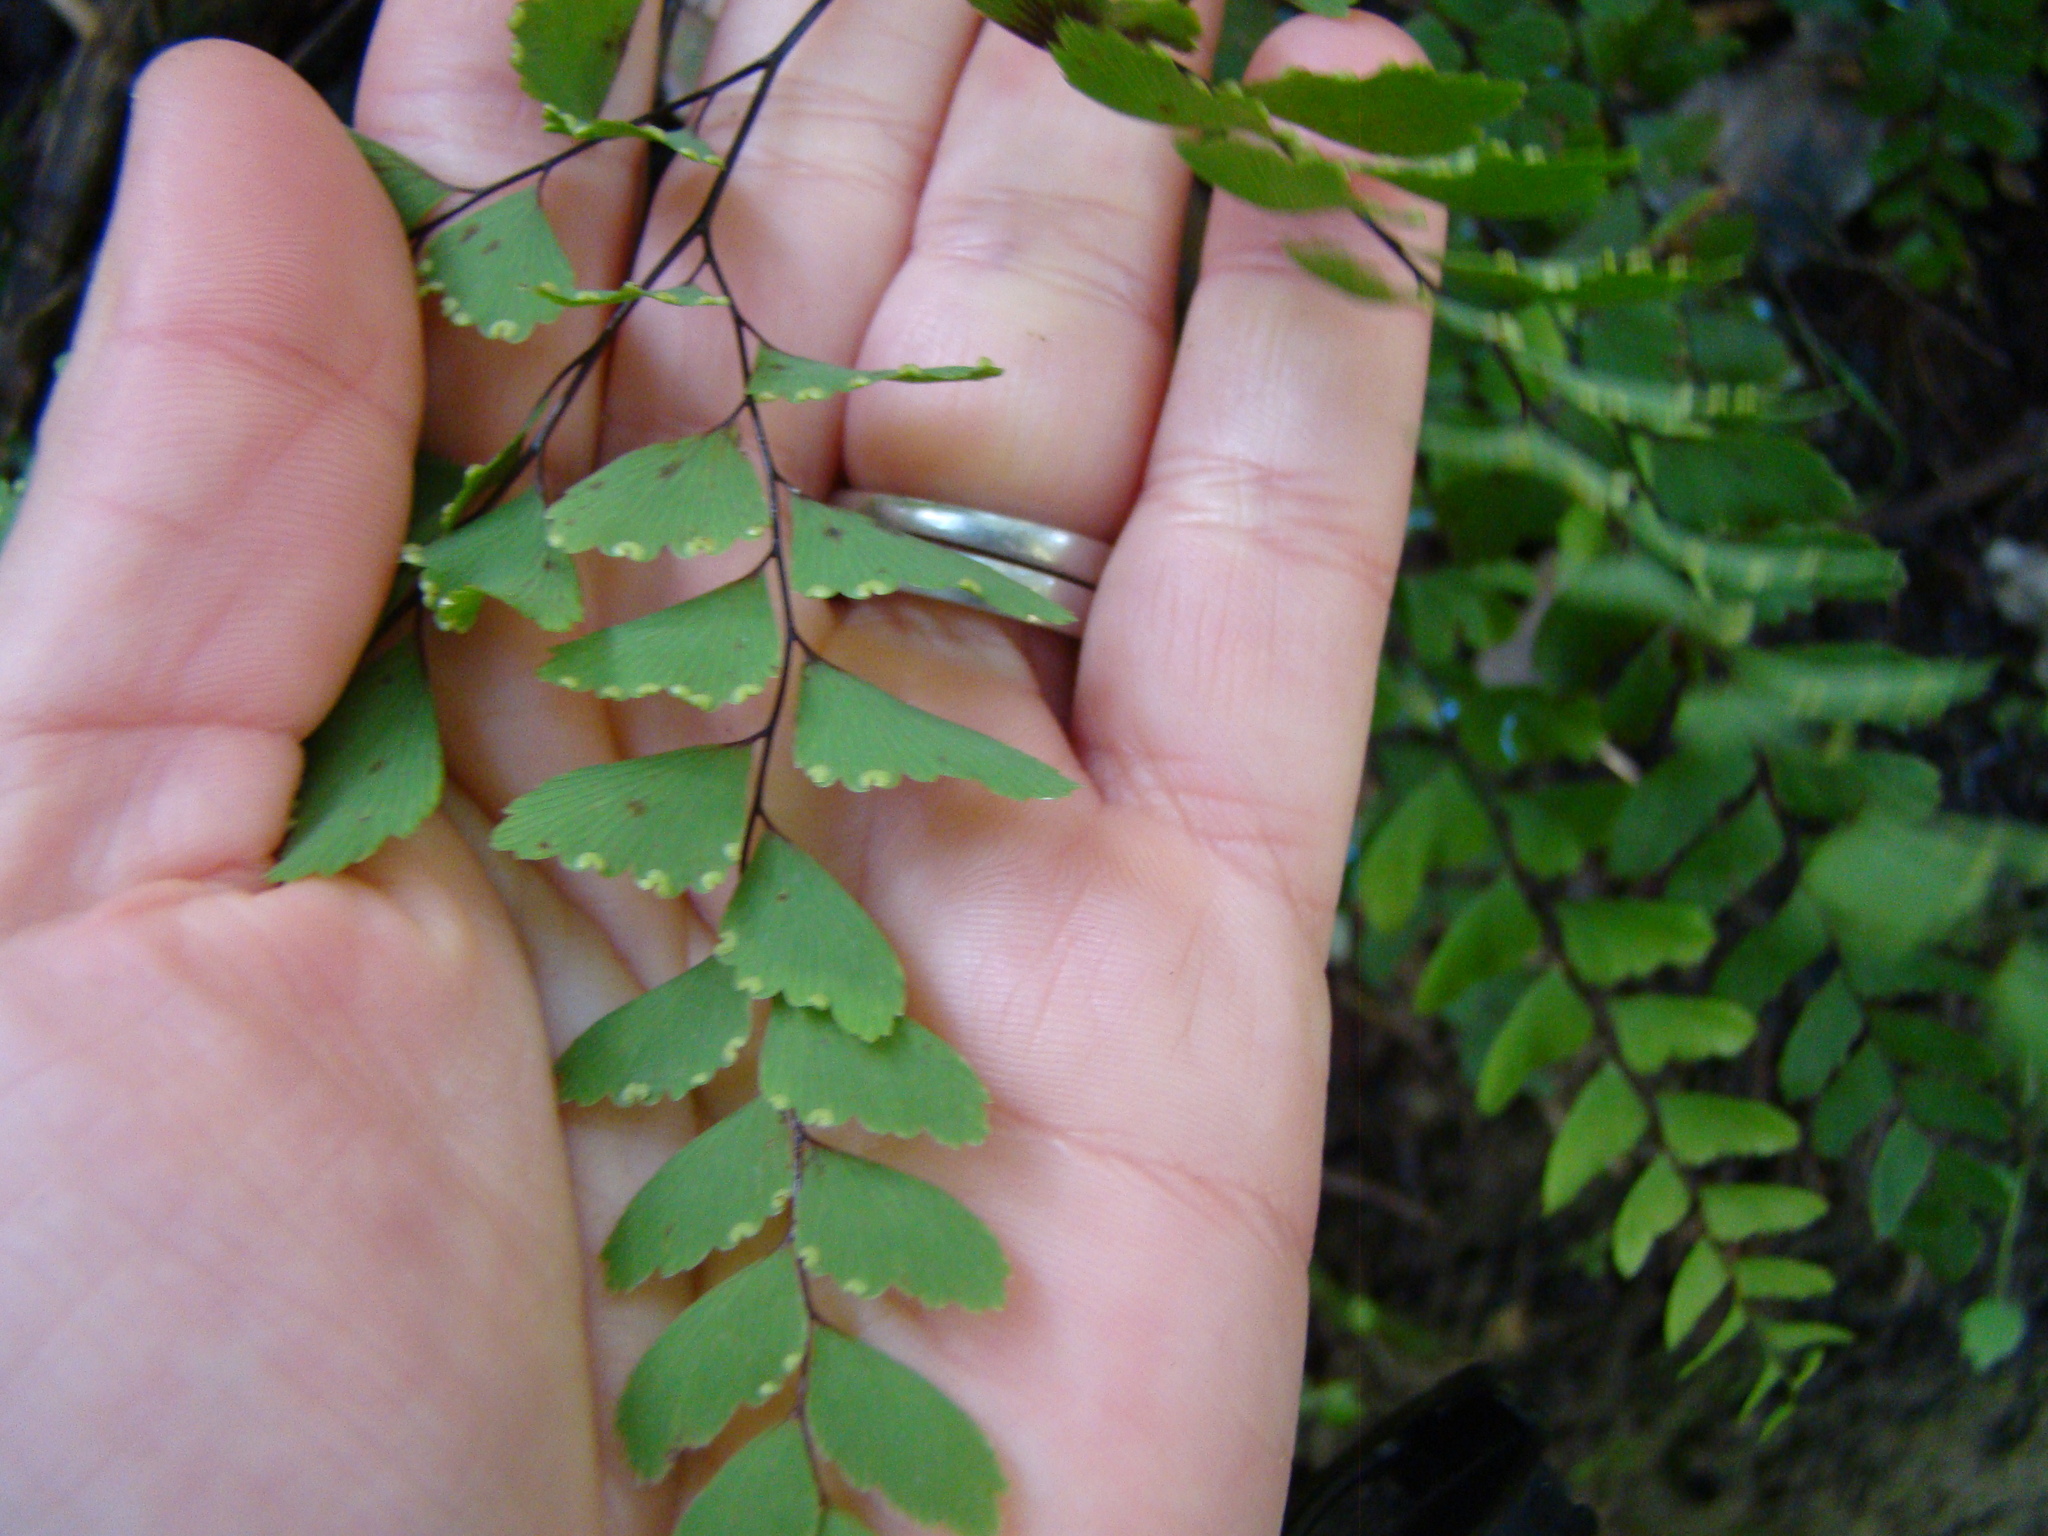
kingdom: Plantae
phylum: Tracheophyta
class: Polypodiopsida
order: Polypodiales
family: Pteridaceae
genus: Adiantum
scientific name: Adiantum cunninghamii
